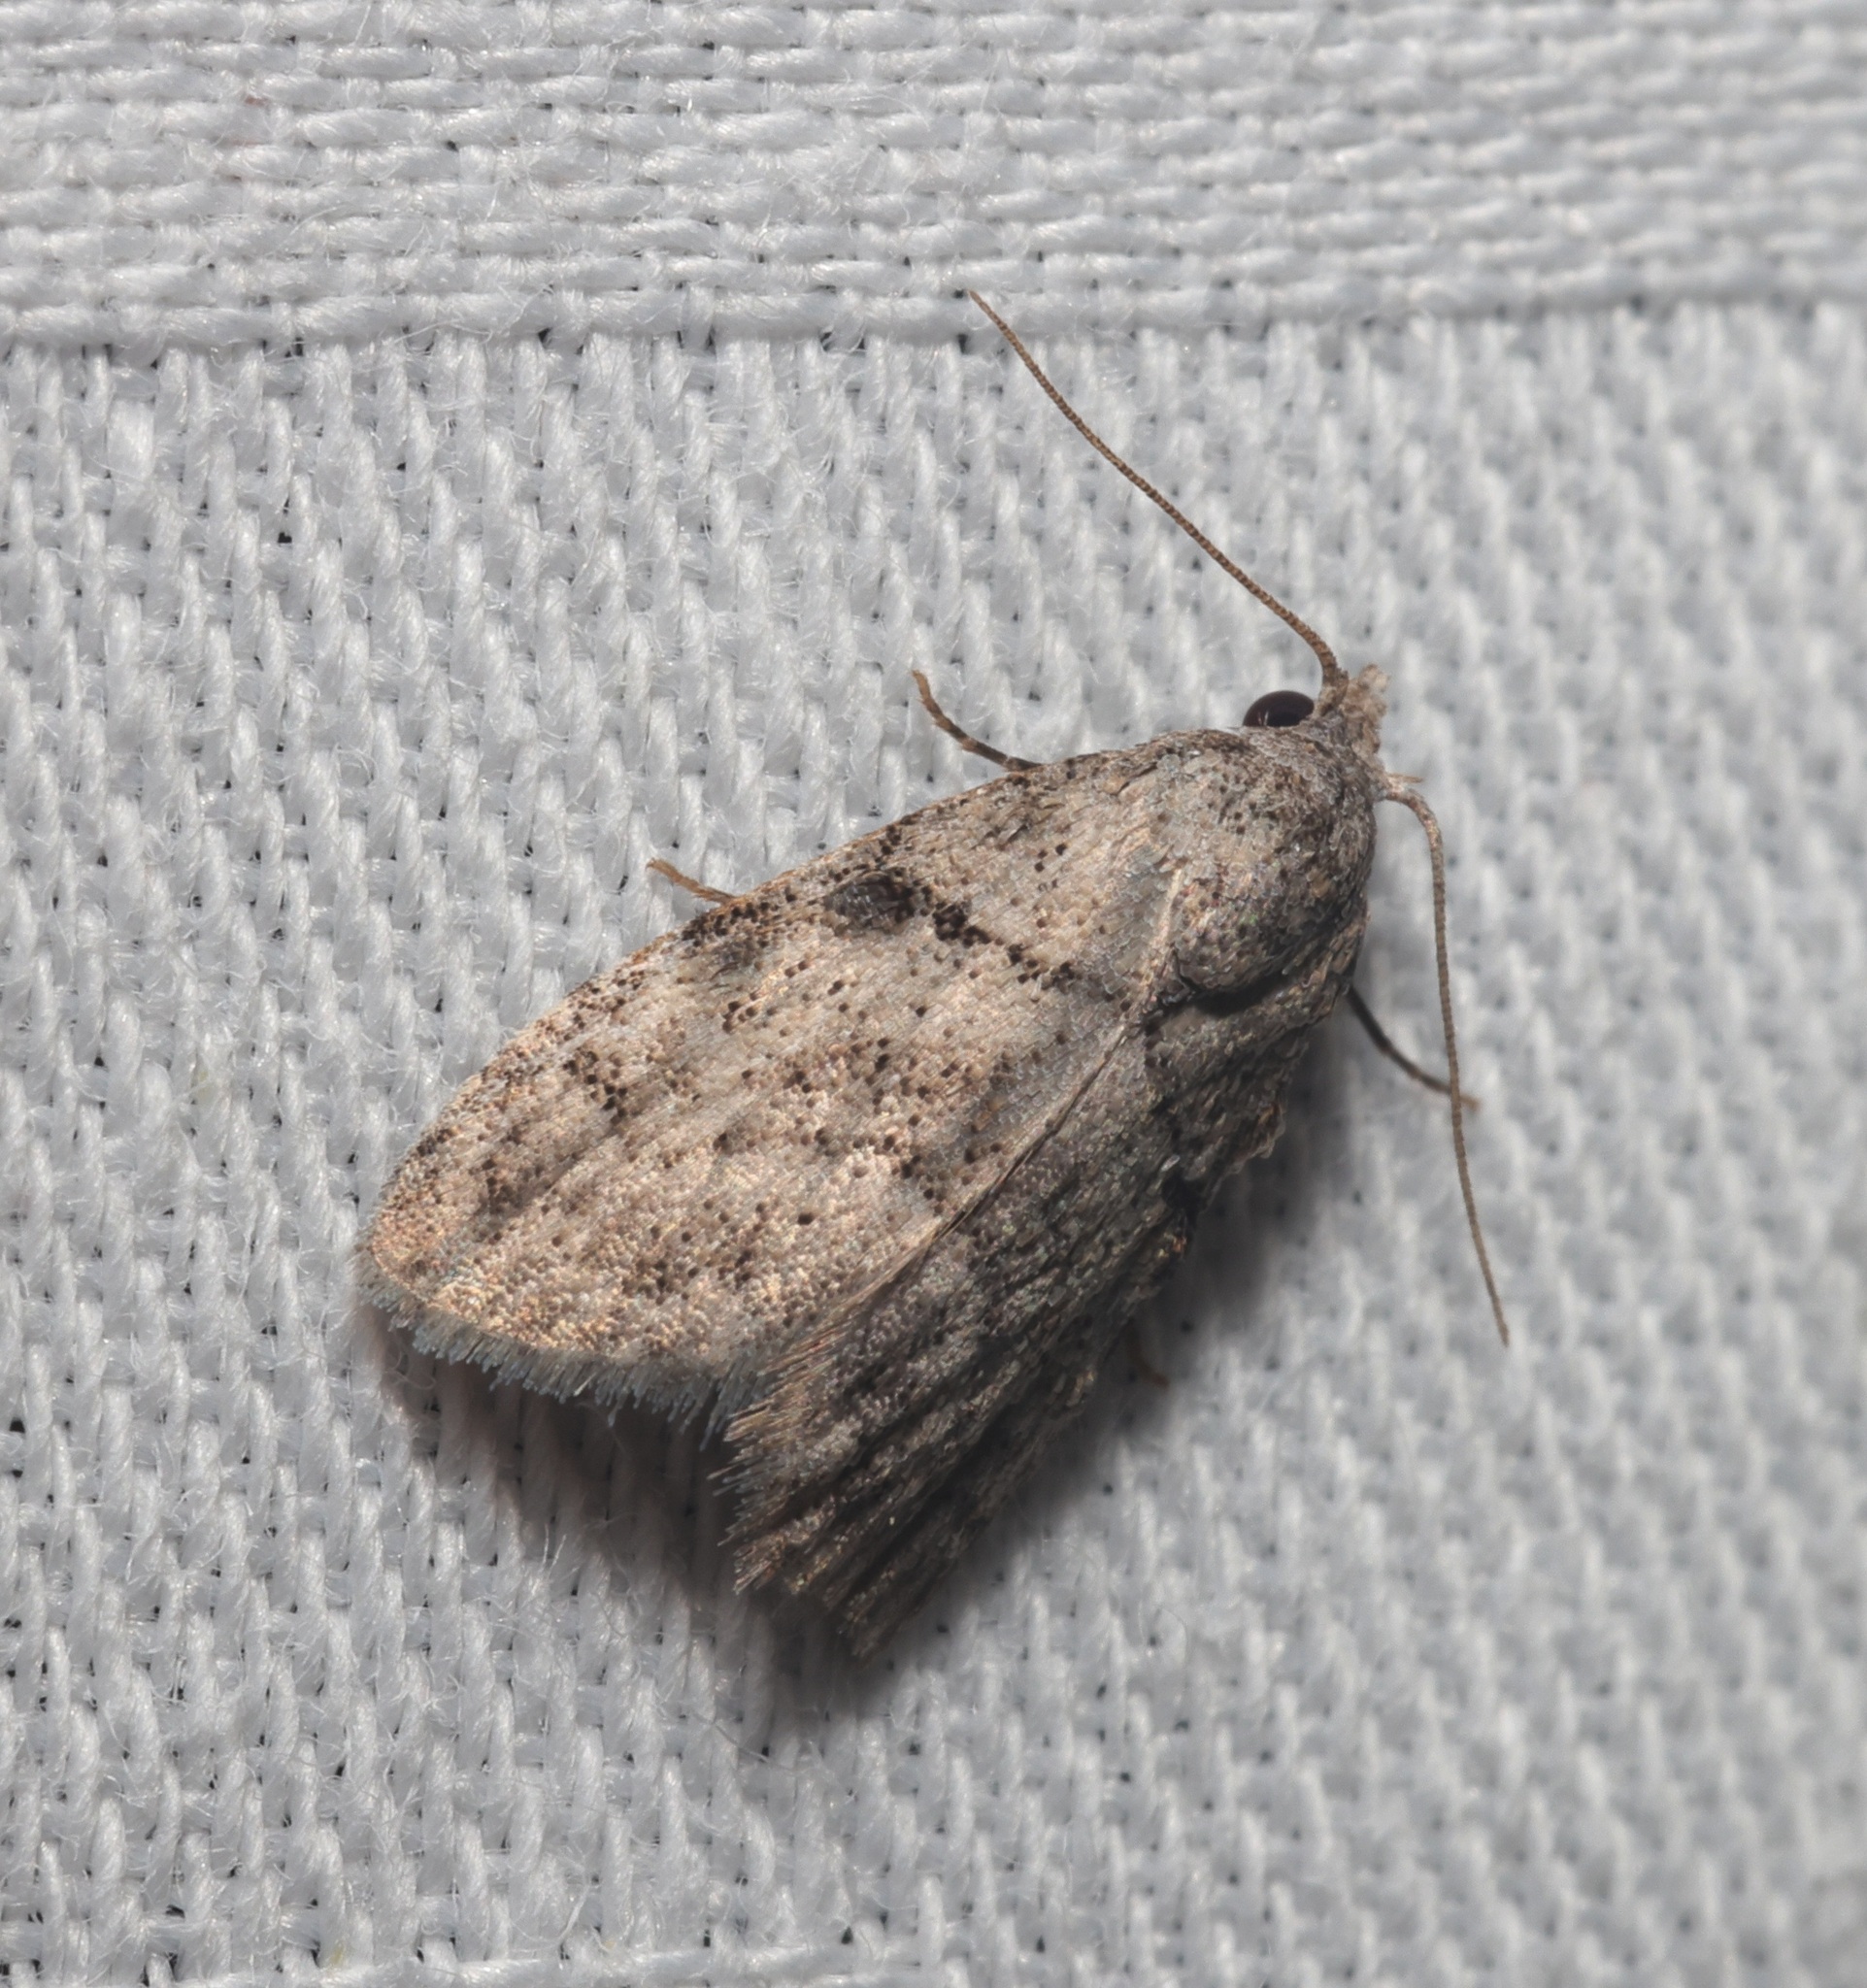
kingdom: Animalia
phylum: Arthropoda
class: Insecta
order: Lepidoptera
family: Nolidae
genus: Inouenola
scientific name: Inouenola pallescens
